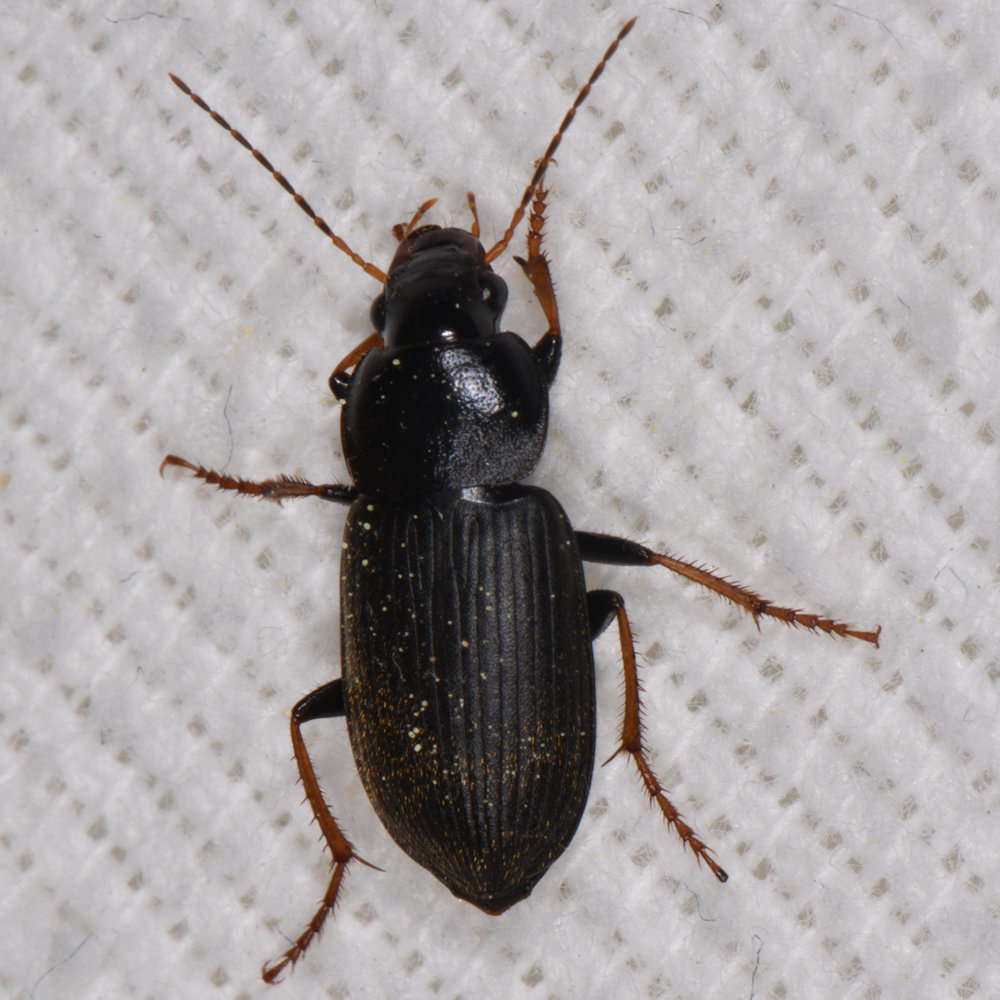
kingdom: Animalia
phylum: Arthropoda
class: Insecta
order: Coleoptera
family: Carabidae
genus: Amphasia
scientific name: Amphasia sericea
